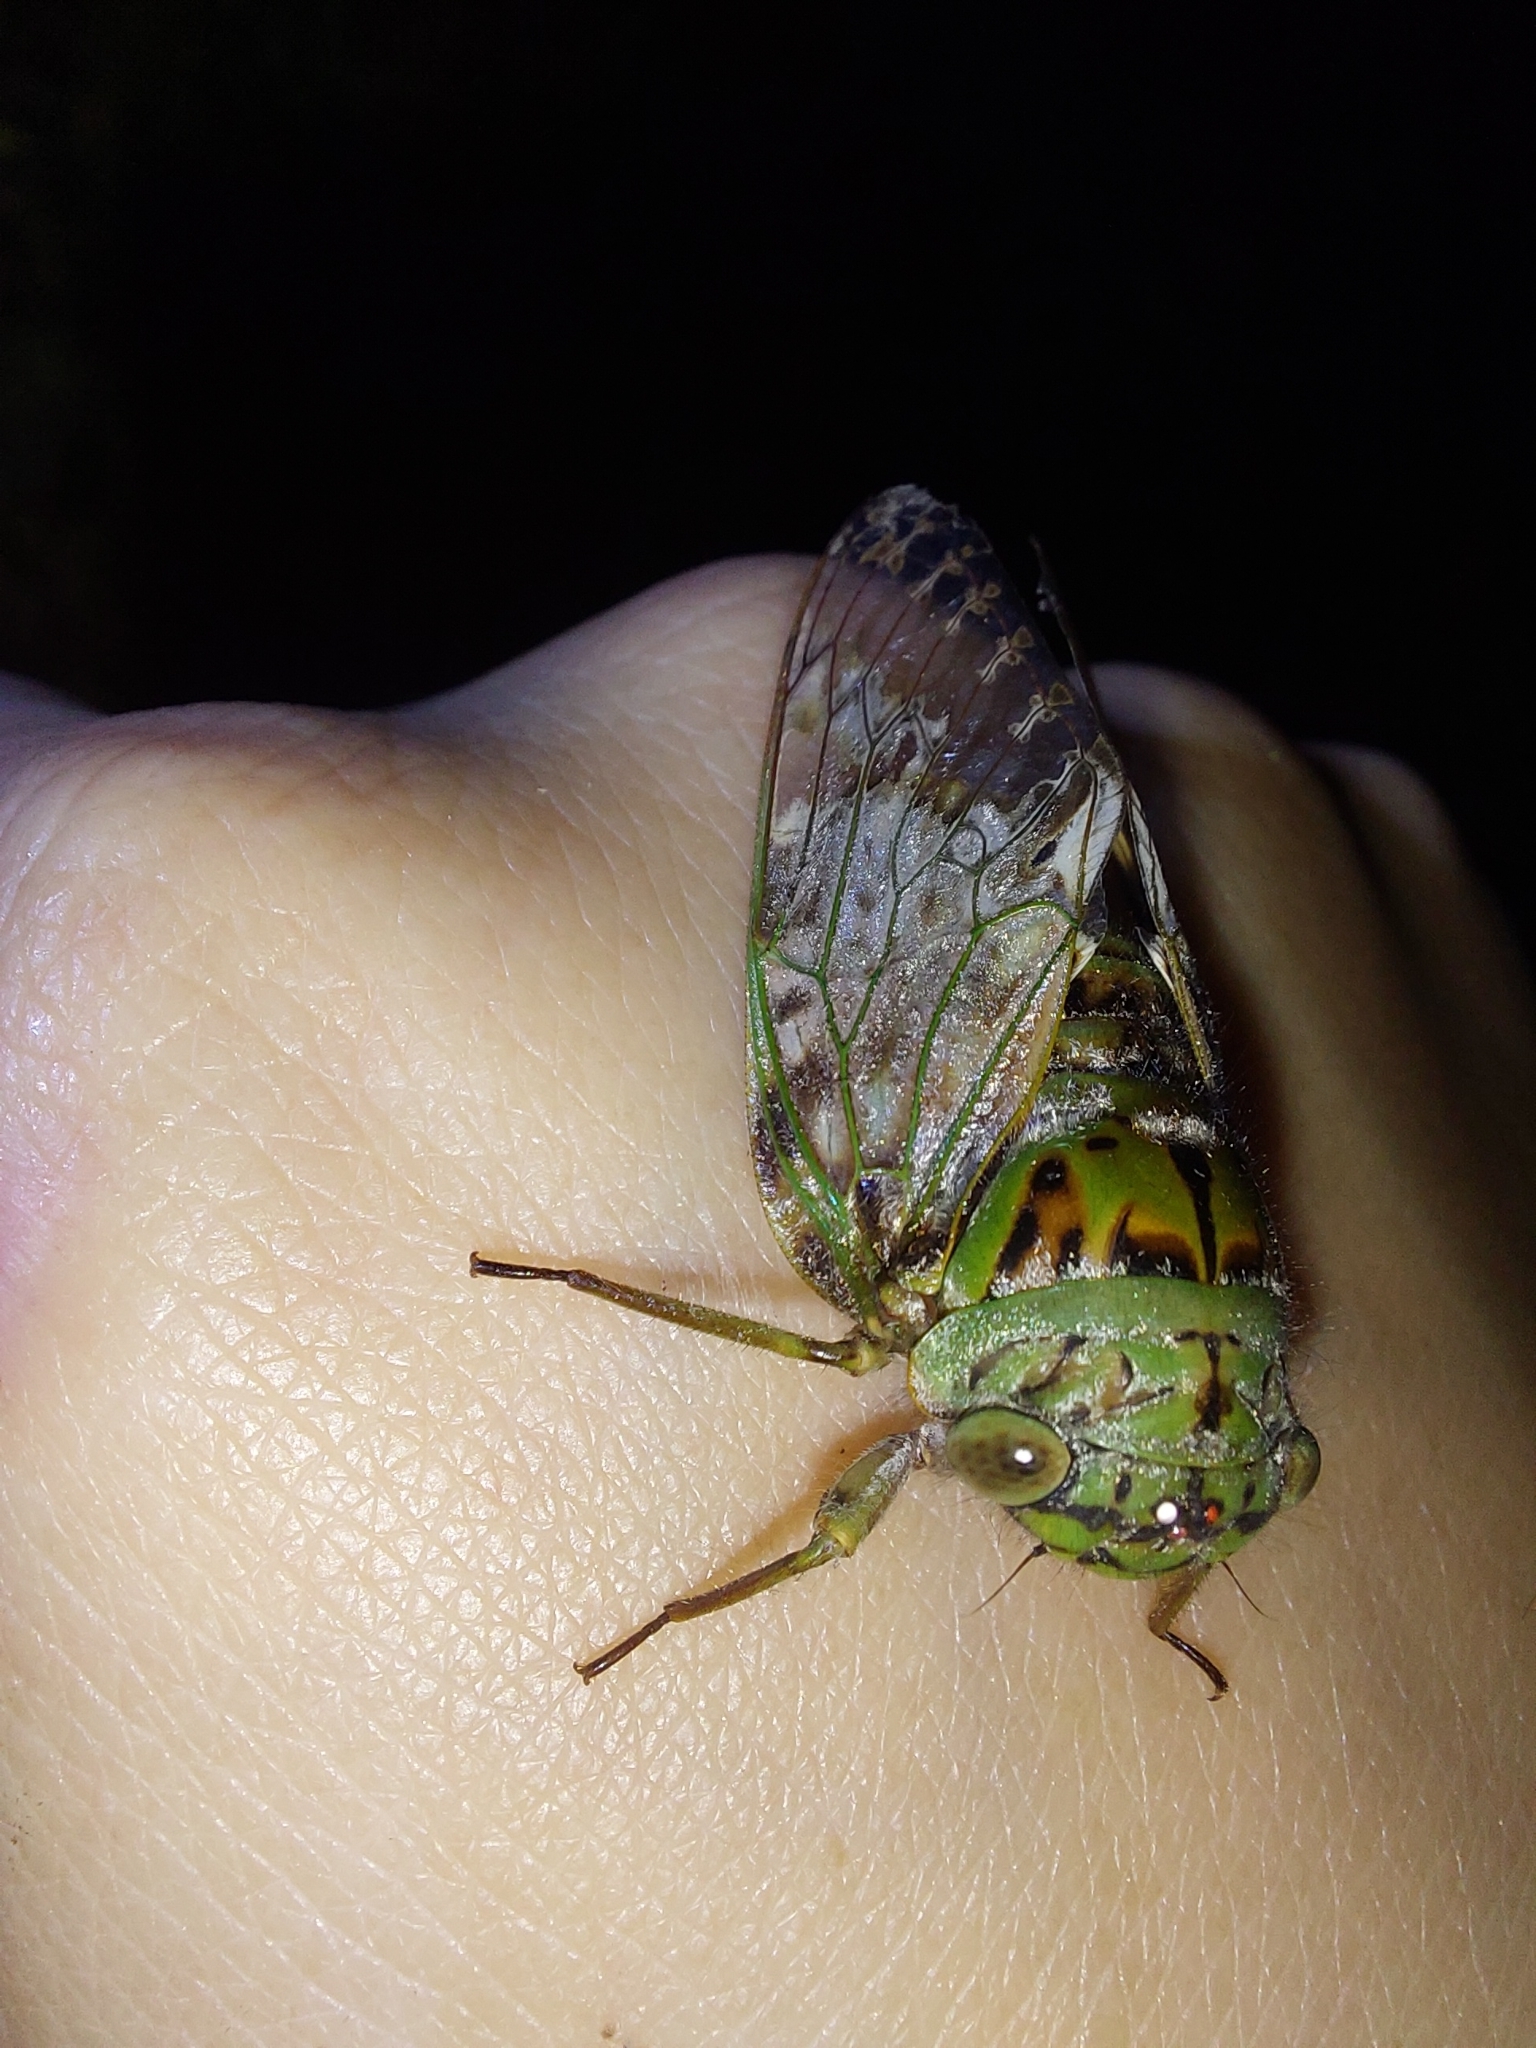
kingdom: Animalia
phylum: Arthropoda
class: Insecta
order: Hemiptera
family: Cicadidae
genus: Suisha
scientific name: Suisha formosana
